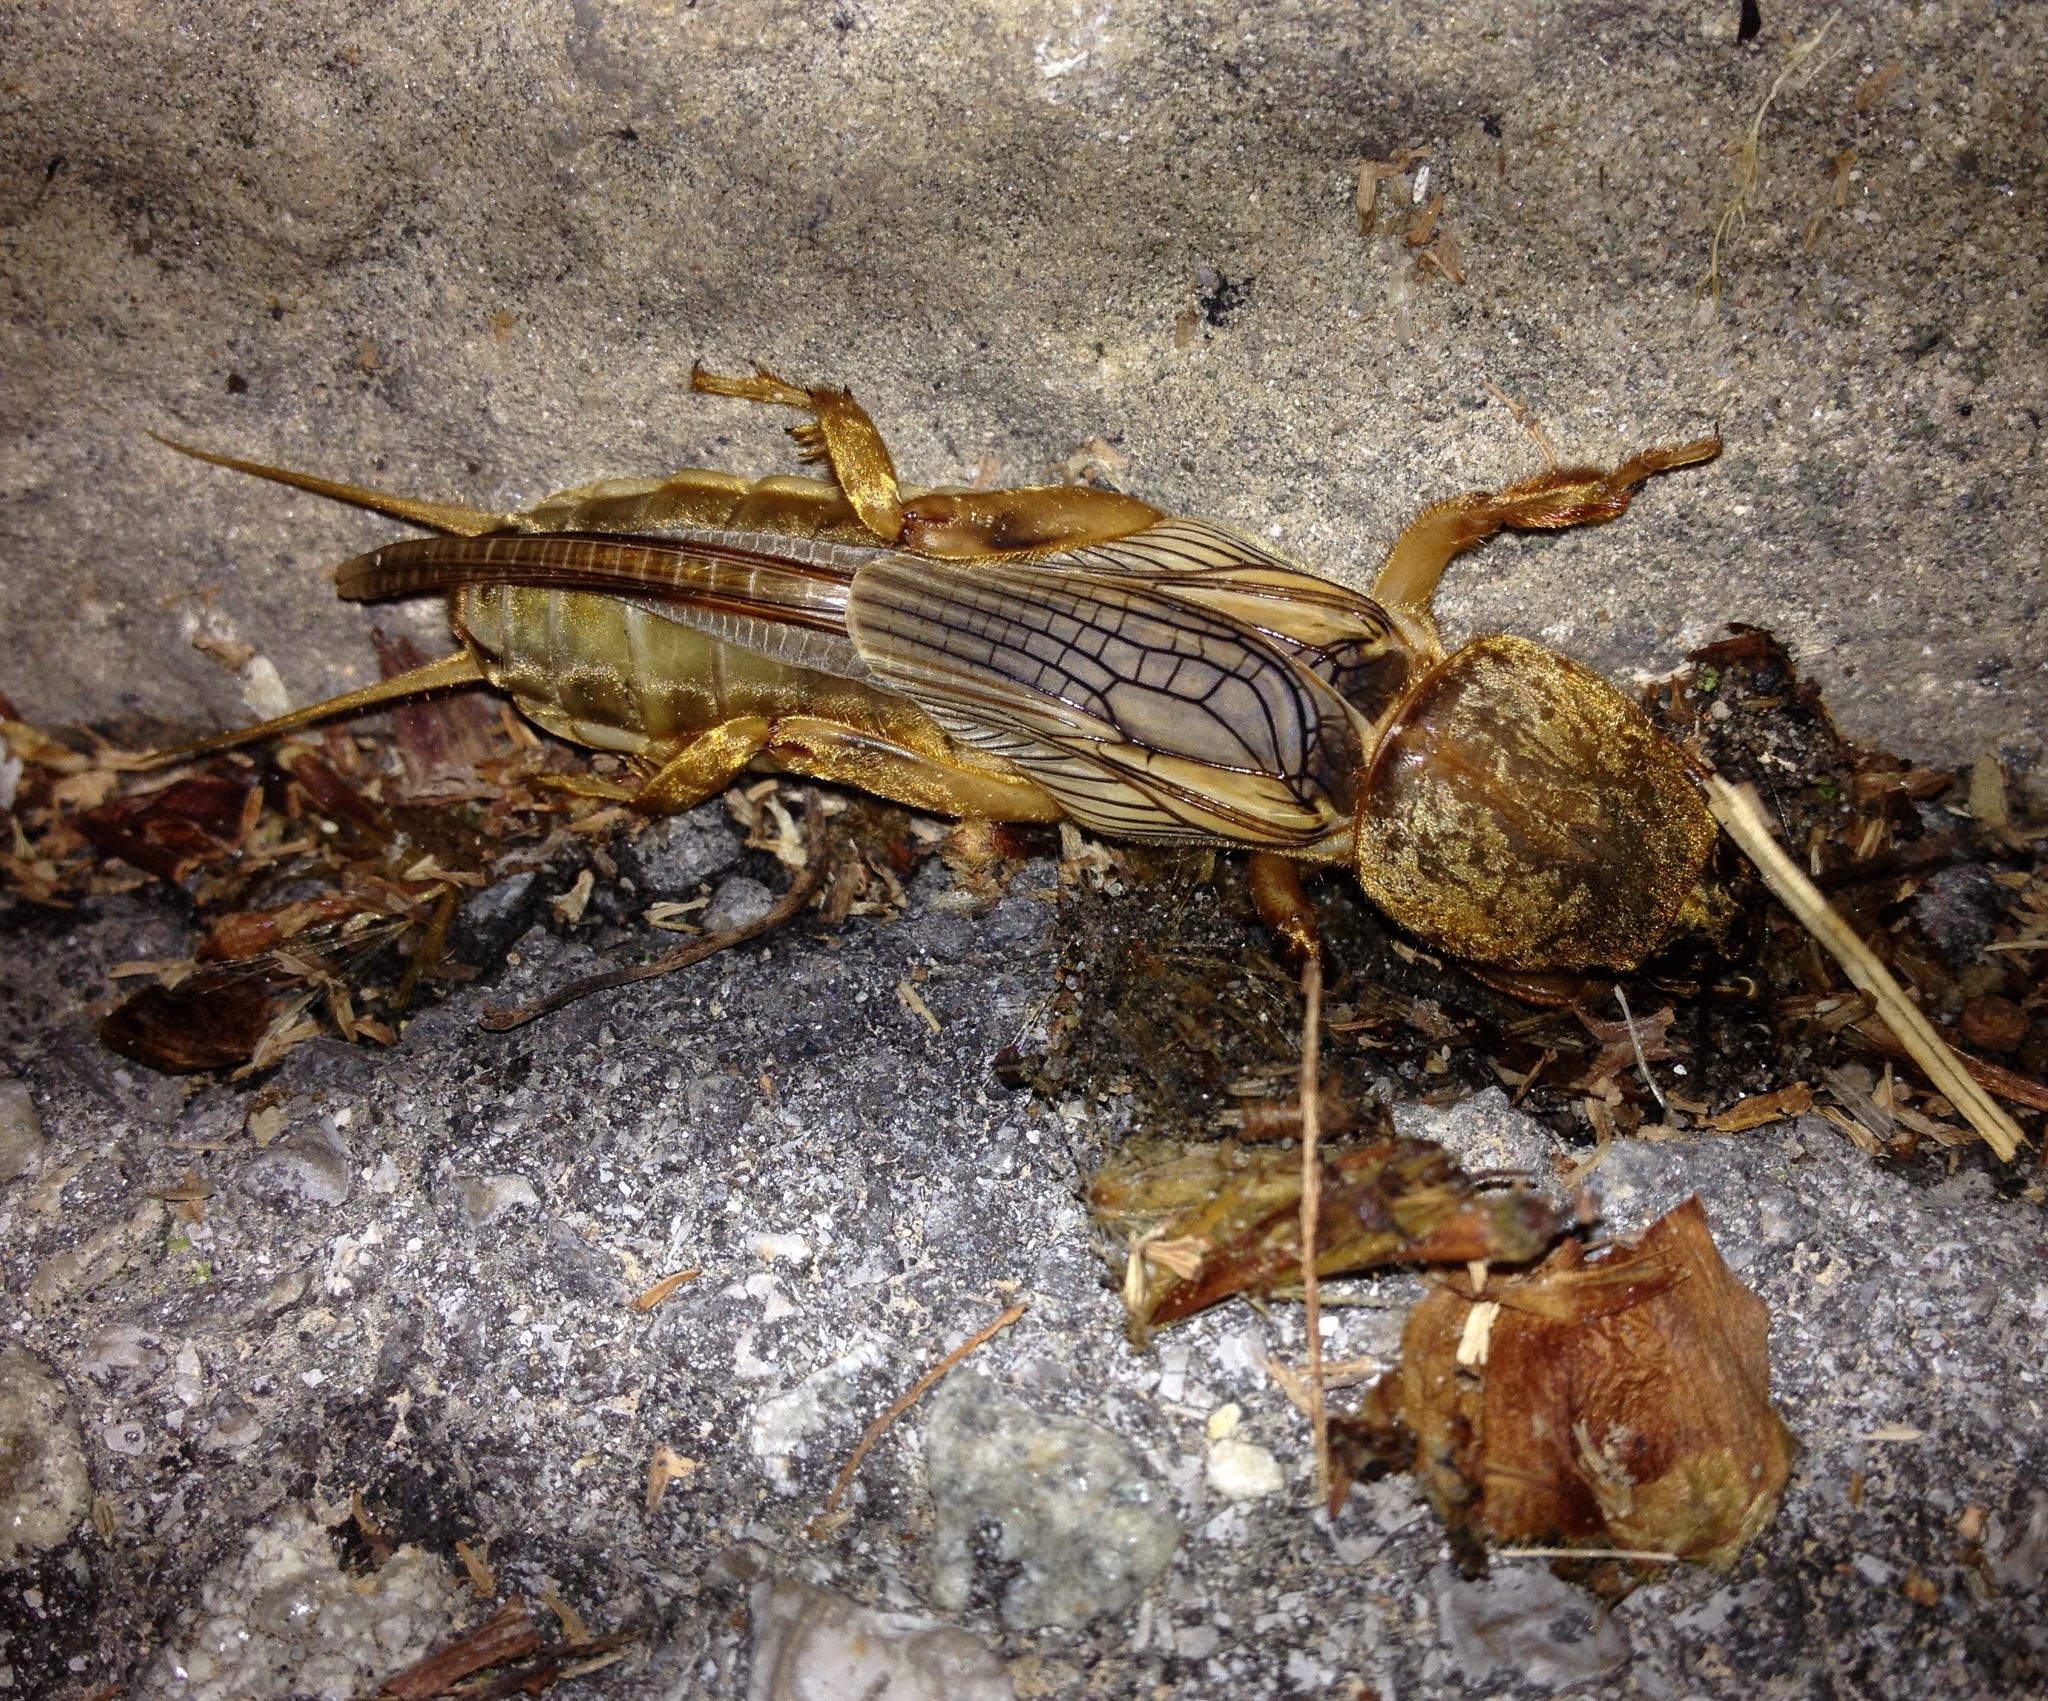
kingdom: Animalia
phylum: Arthropoda
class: Insecta
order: Orthoptera
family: Gryllotalpidae
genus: Gryllotalpa
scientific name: Gryllotalpa vineae
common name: Vineyard mole-cricket
